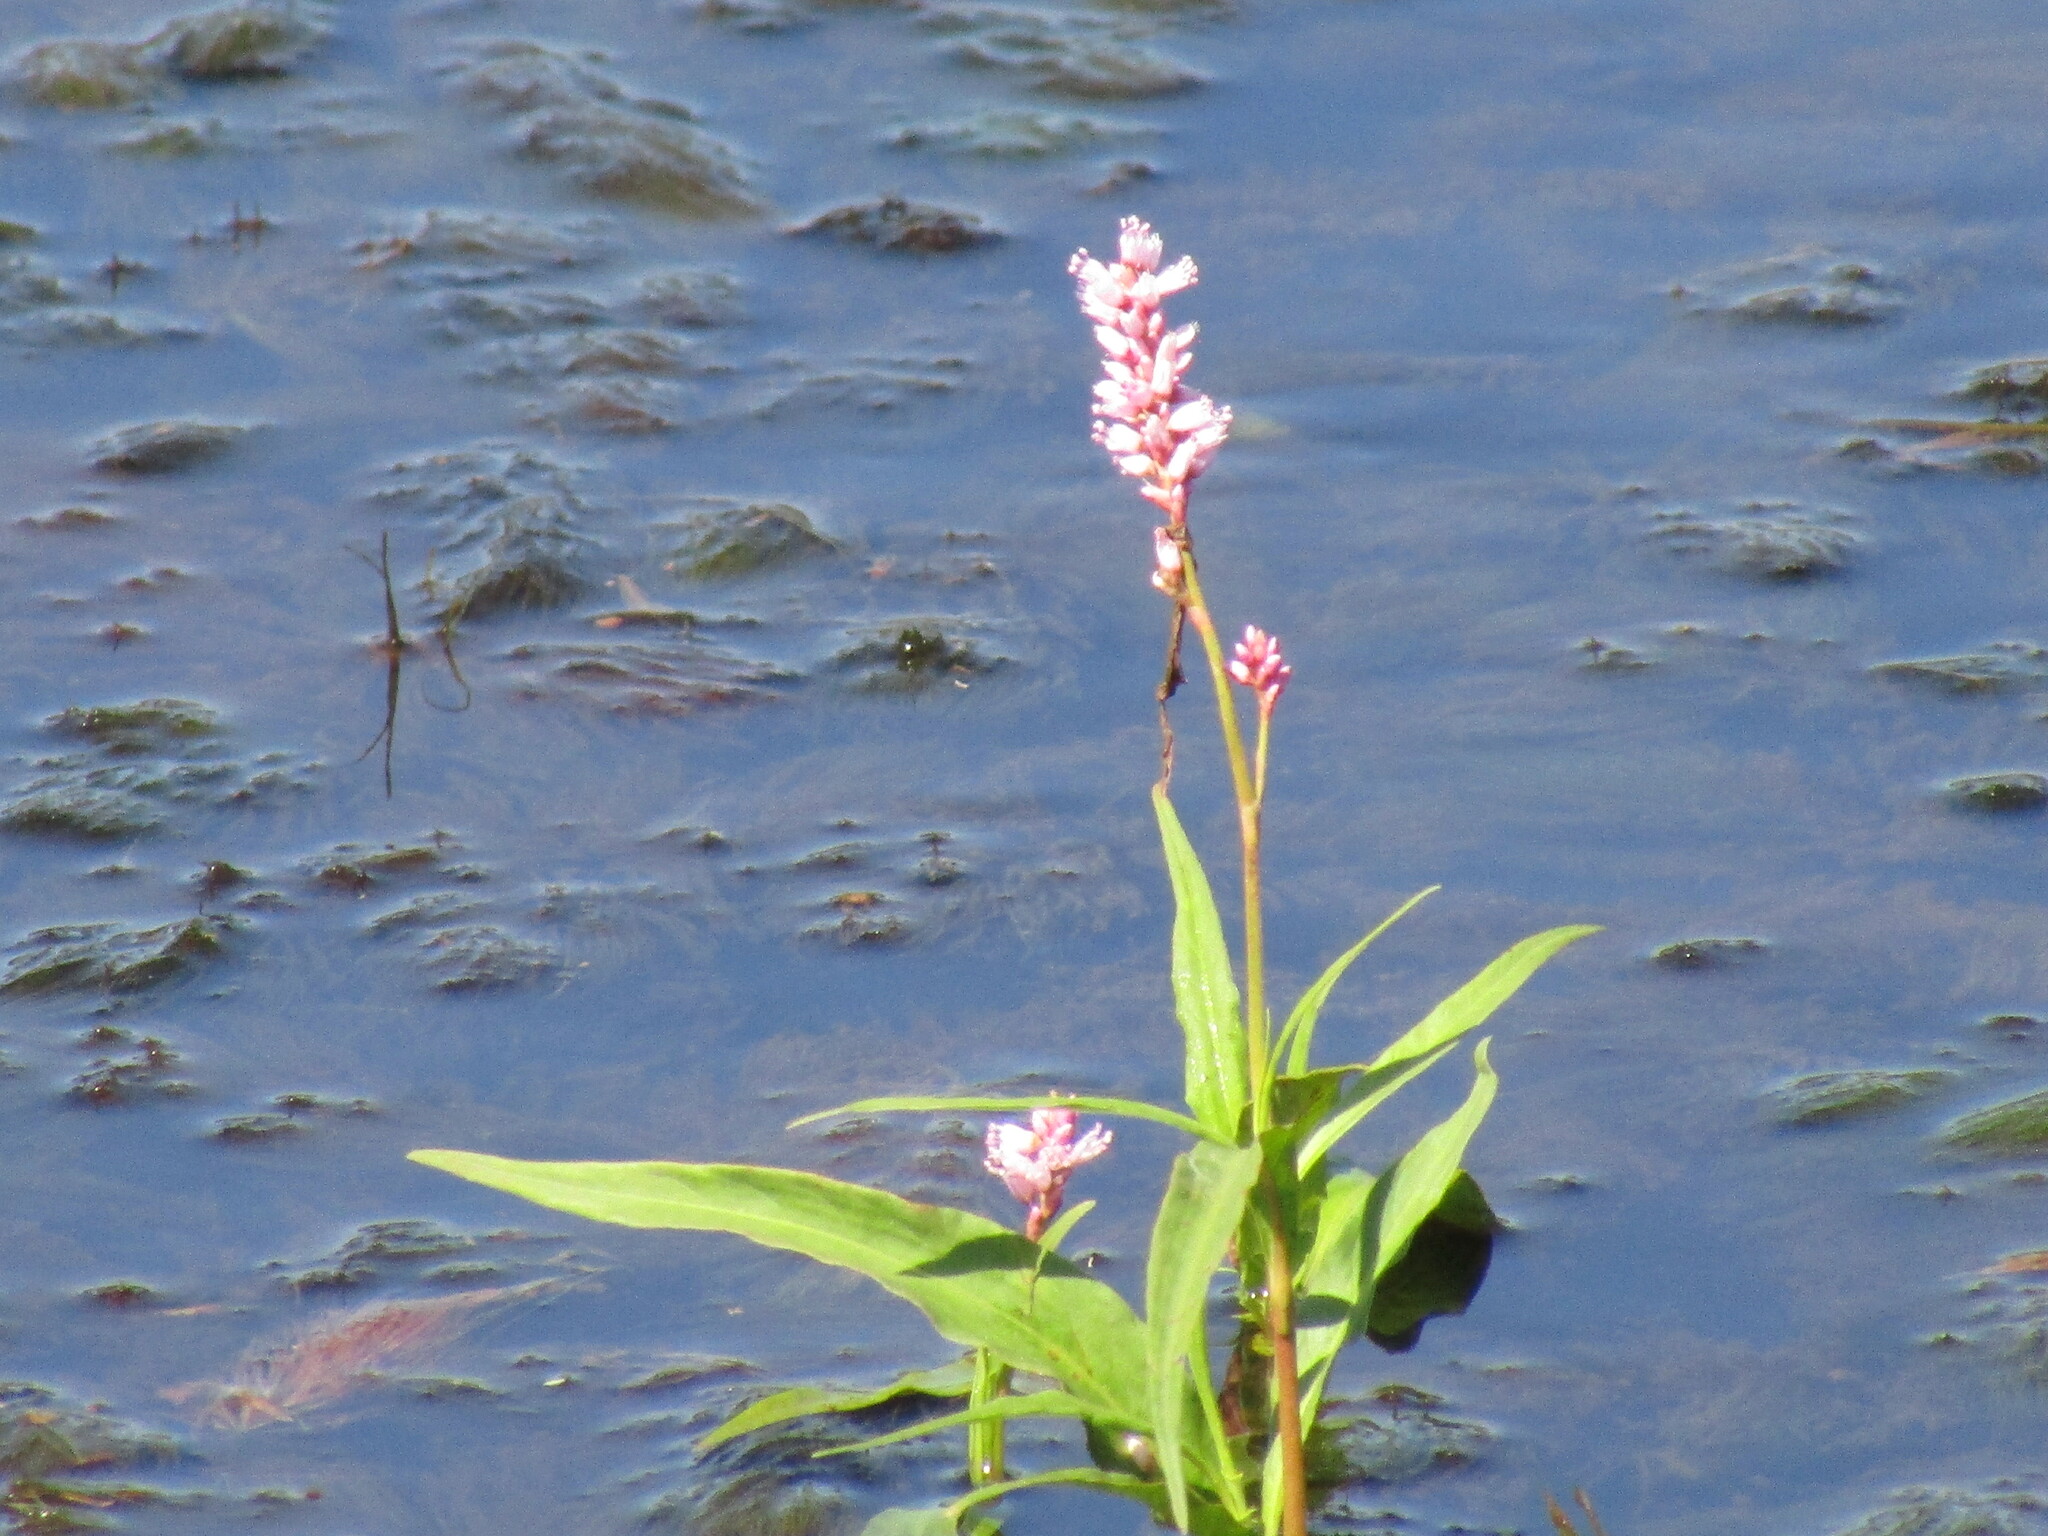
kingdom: Plantae
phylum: Tracheophyta
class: Magnoliopsida
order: Caryophyllales
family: Polygonaceae
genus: Persicaria
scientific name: Persicaria limbata
